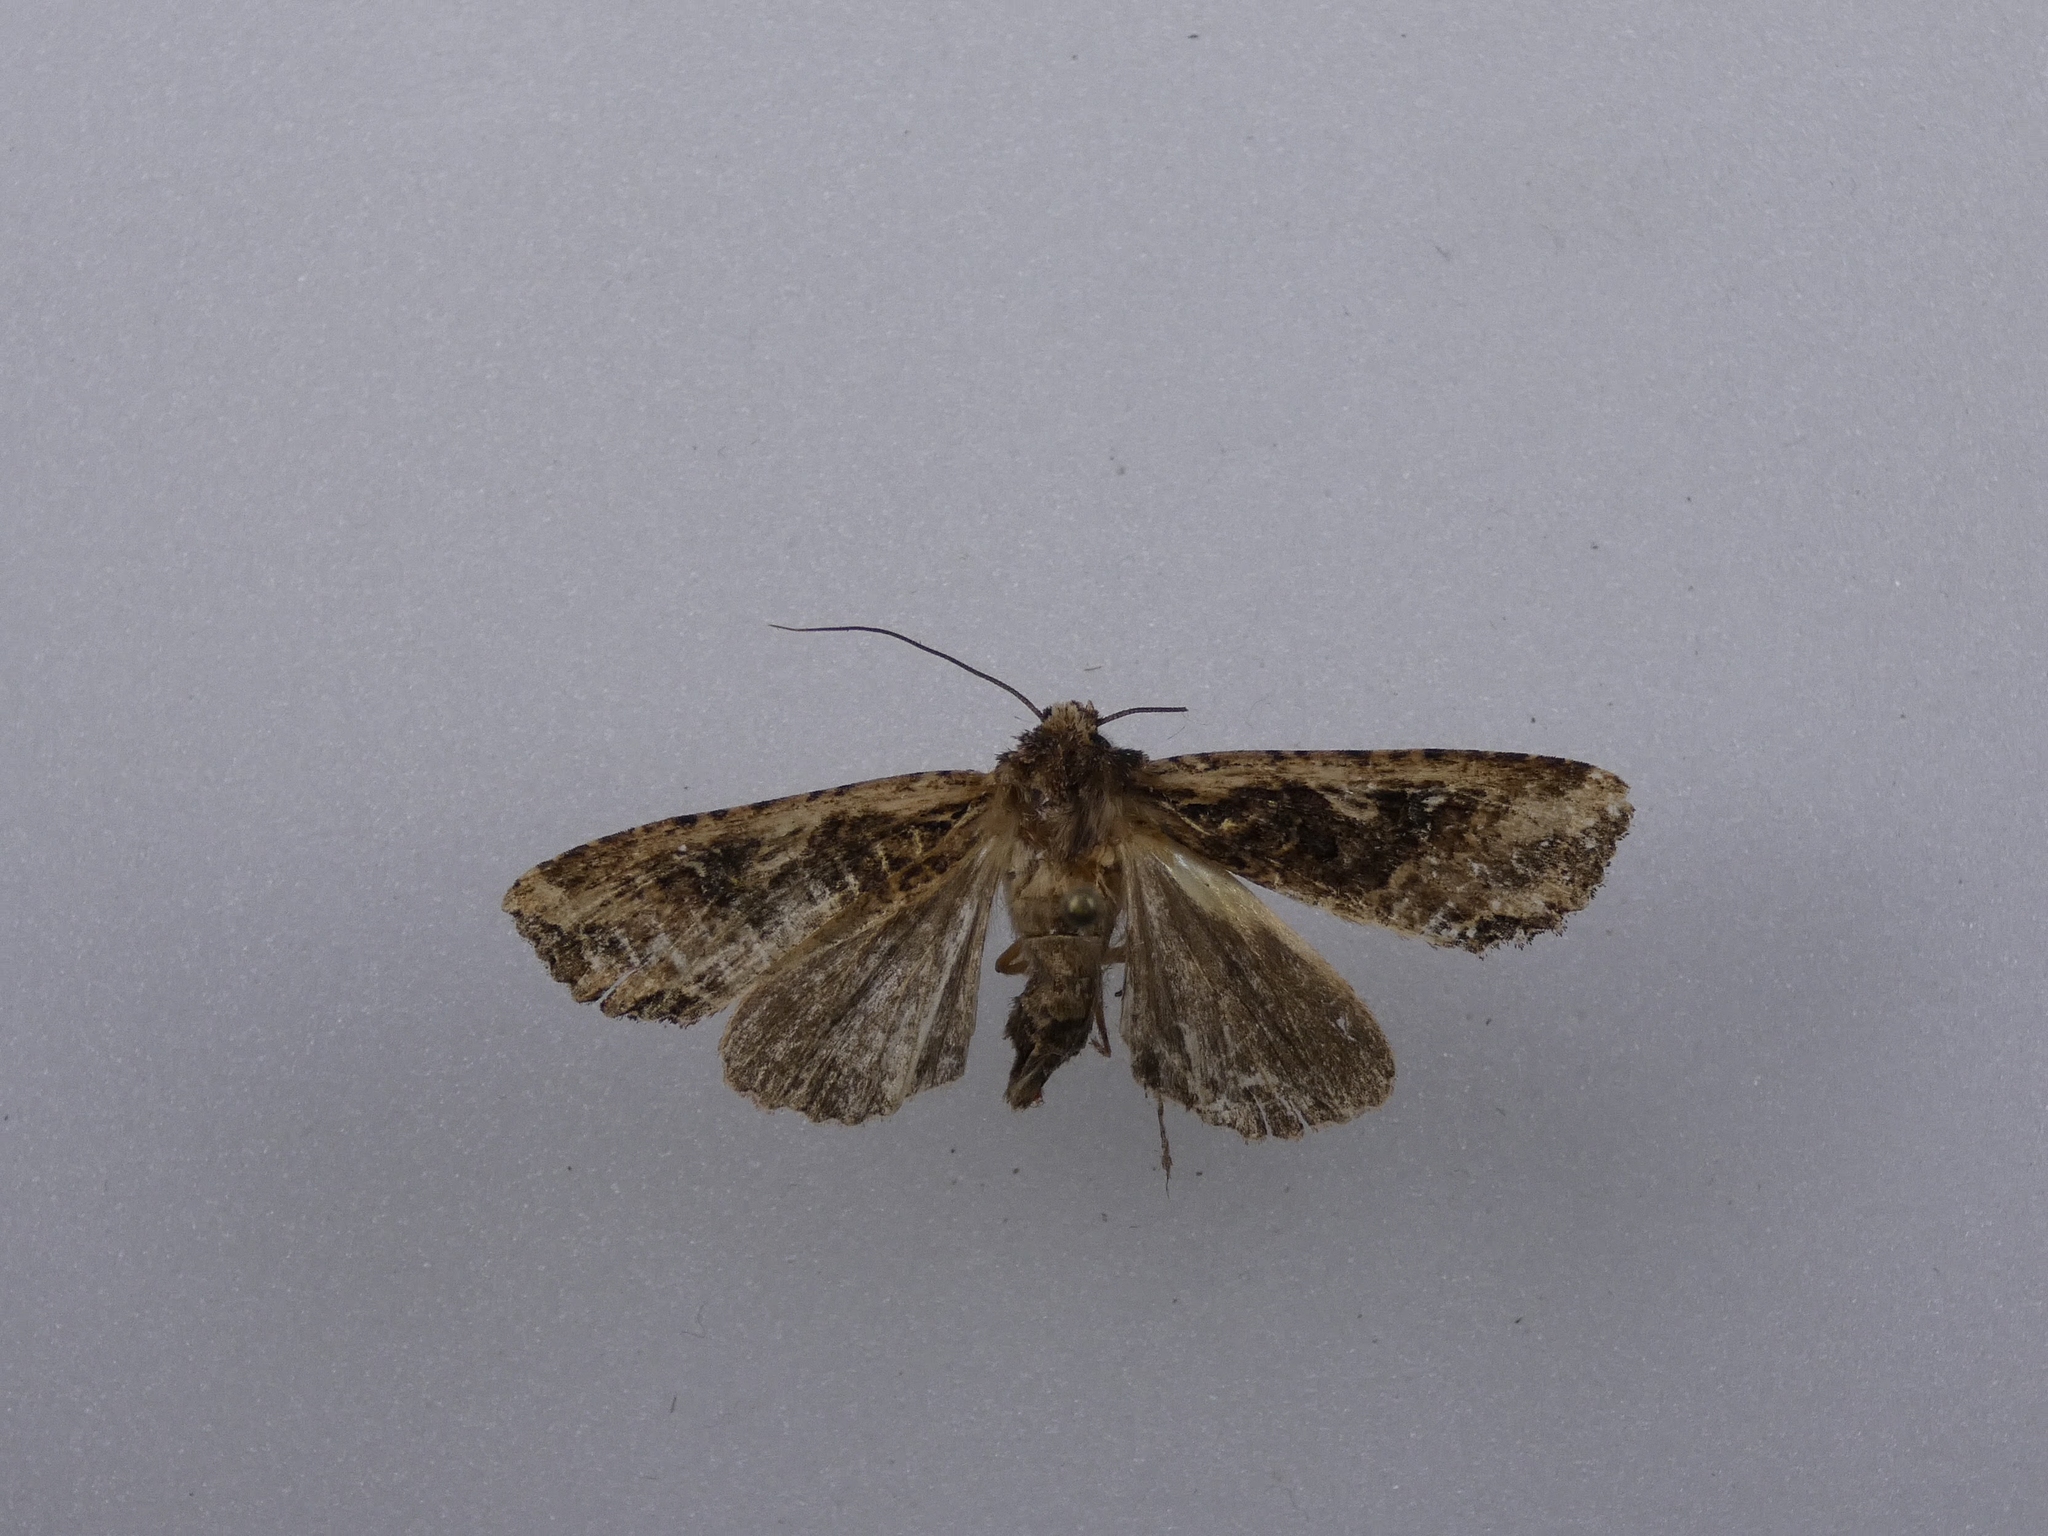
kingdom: Animalia
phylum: Arthropoda
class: Insecta
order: Lepidoptera
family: Noctuidae
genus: Meterana
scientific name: Meterana alcyone
